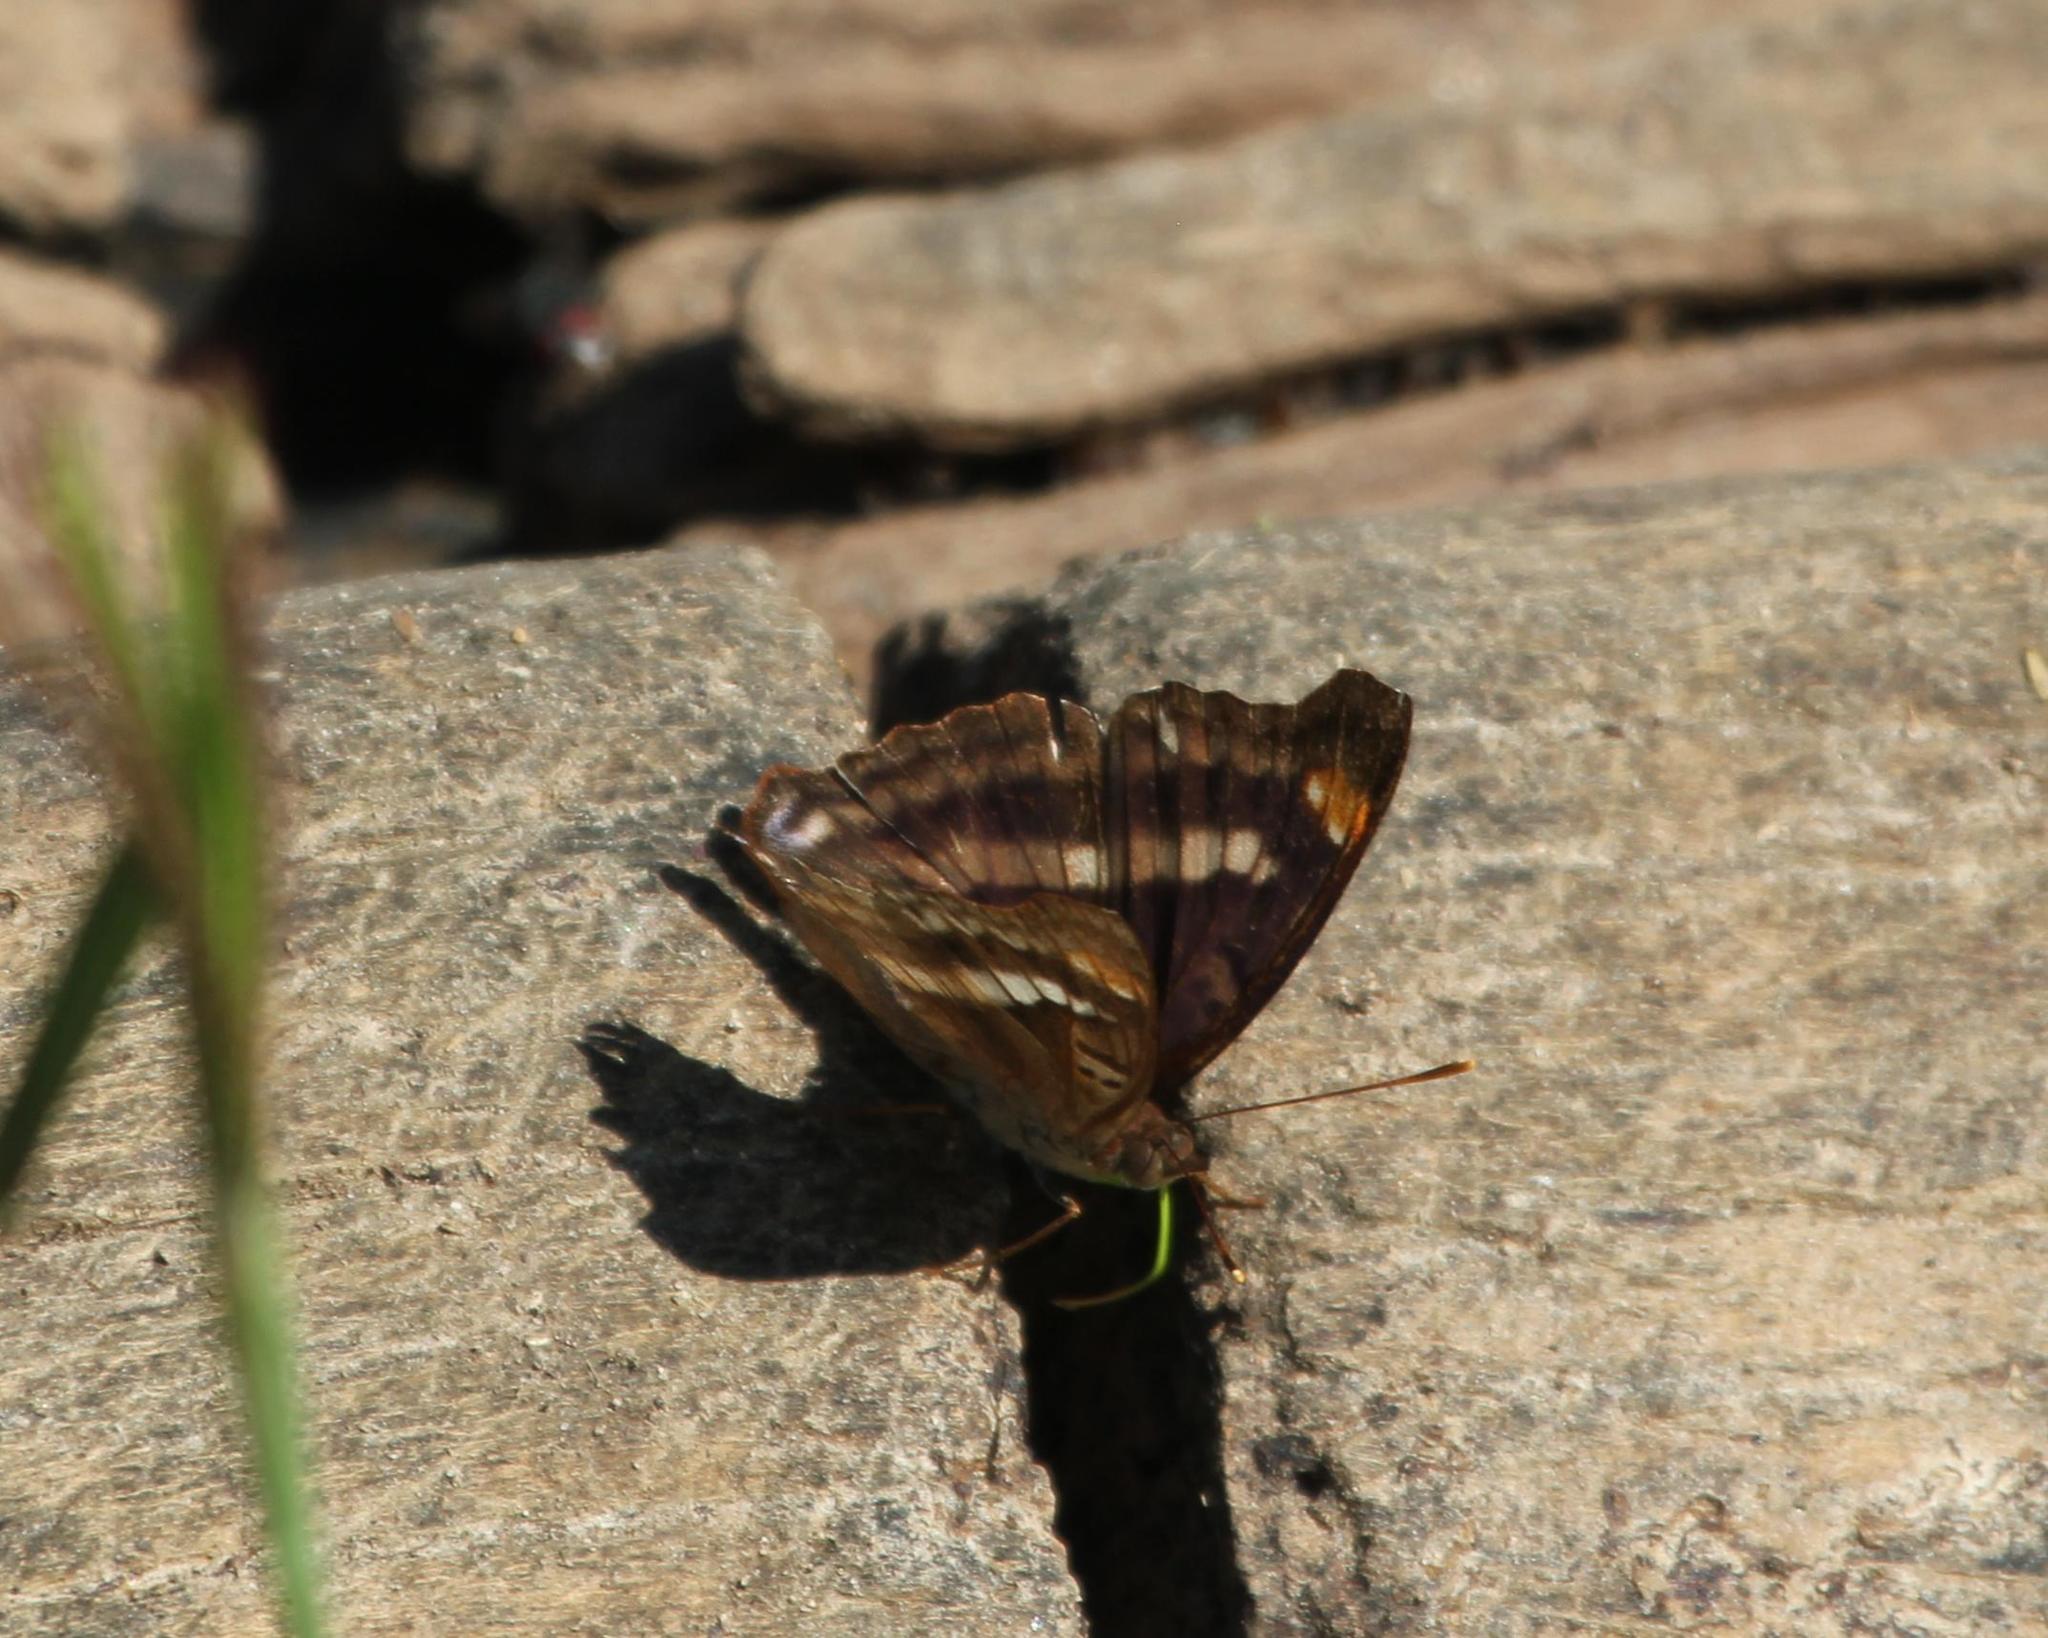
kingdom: Animalia
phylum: Arthropoda
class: Insecta
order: Lepidoptera
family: Nymphalidae
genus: Doxocopa
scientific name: Doxocopa pavon
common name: Pavon emperor
